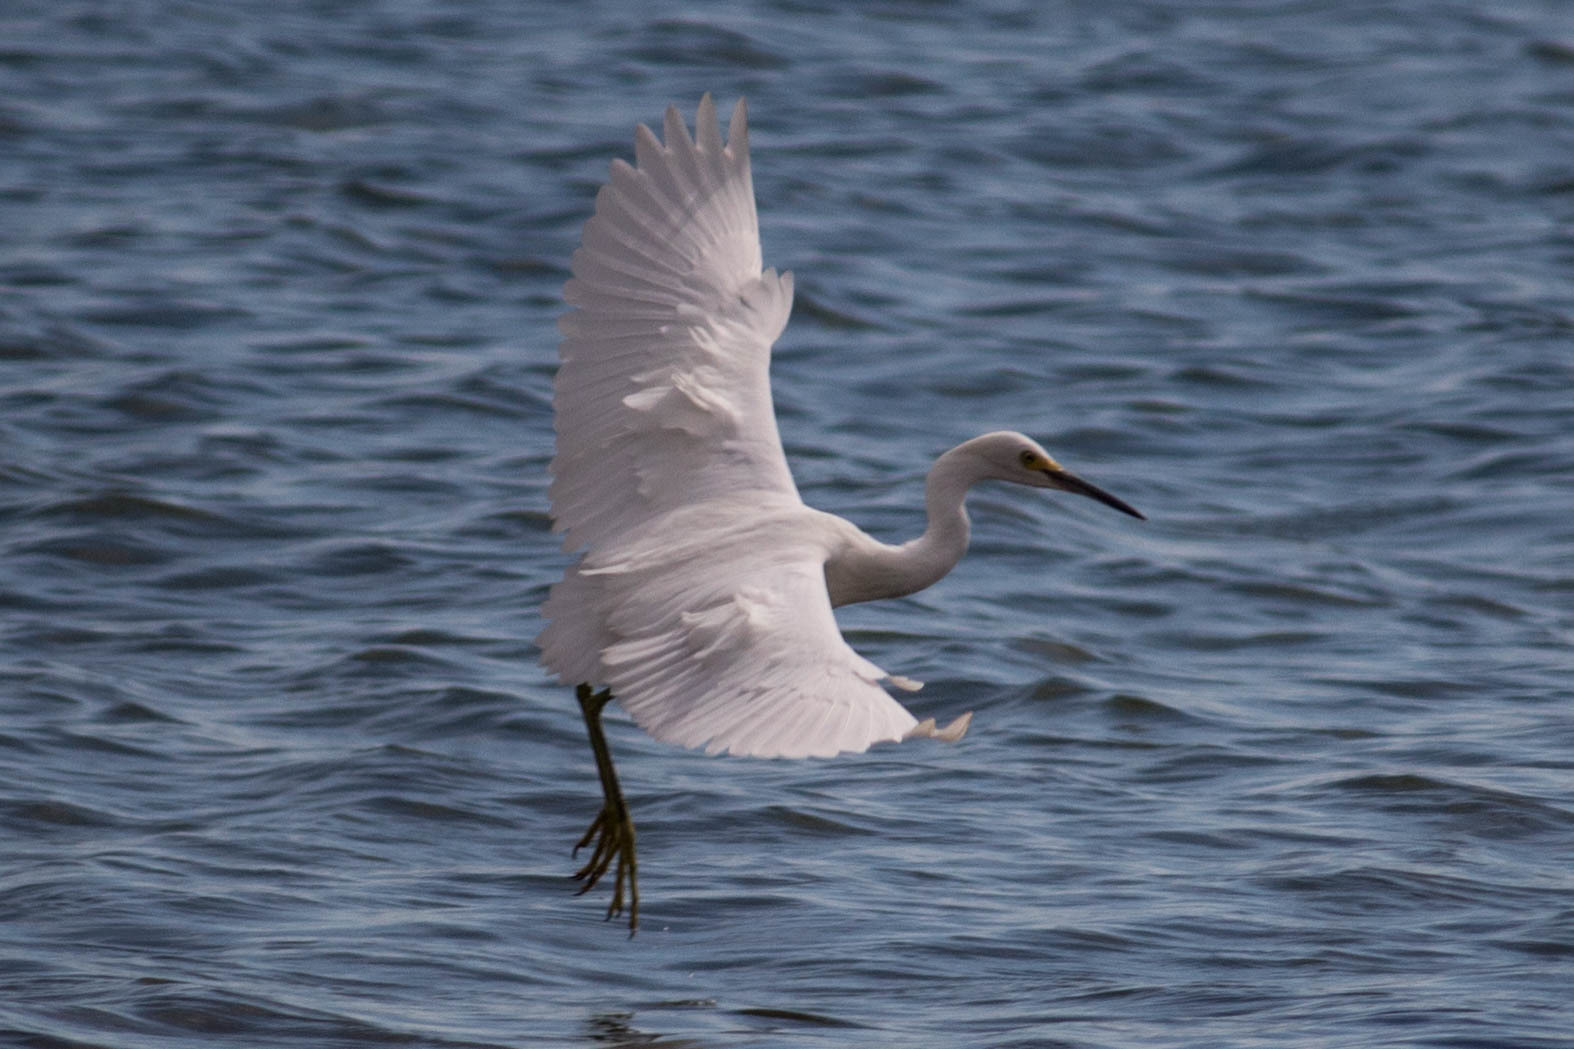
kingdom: Animalia
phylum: Chordata
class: Aves
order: Pelecaniformes
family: Ardeidae
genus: Egretta
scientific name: Egretta thula
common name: Snowy egret
